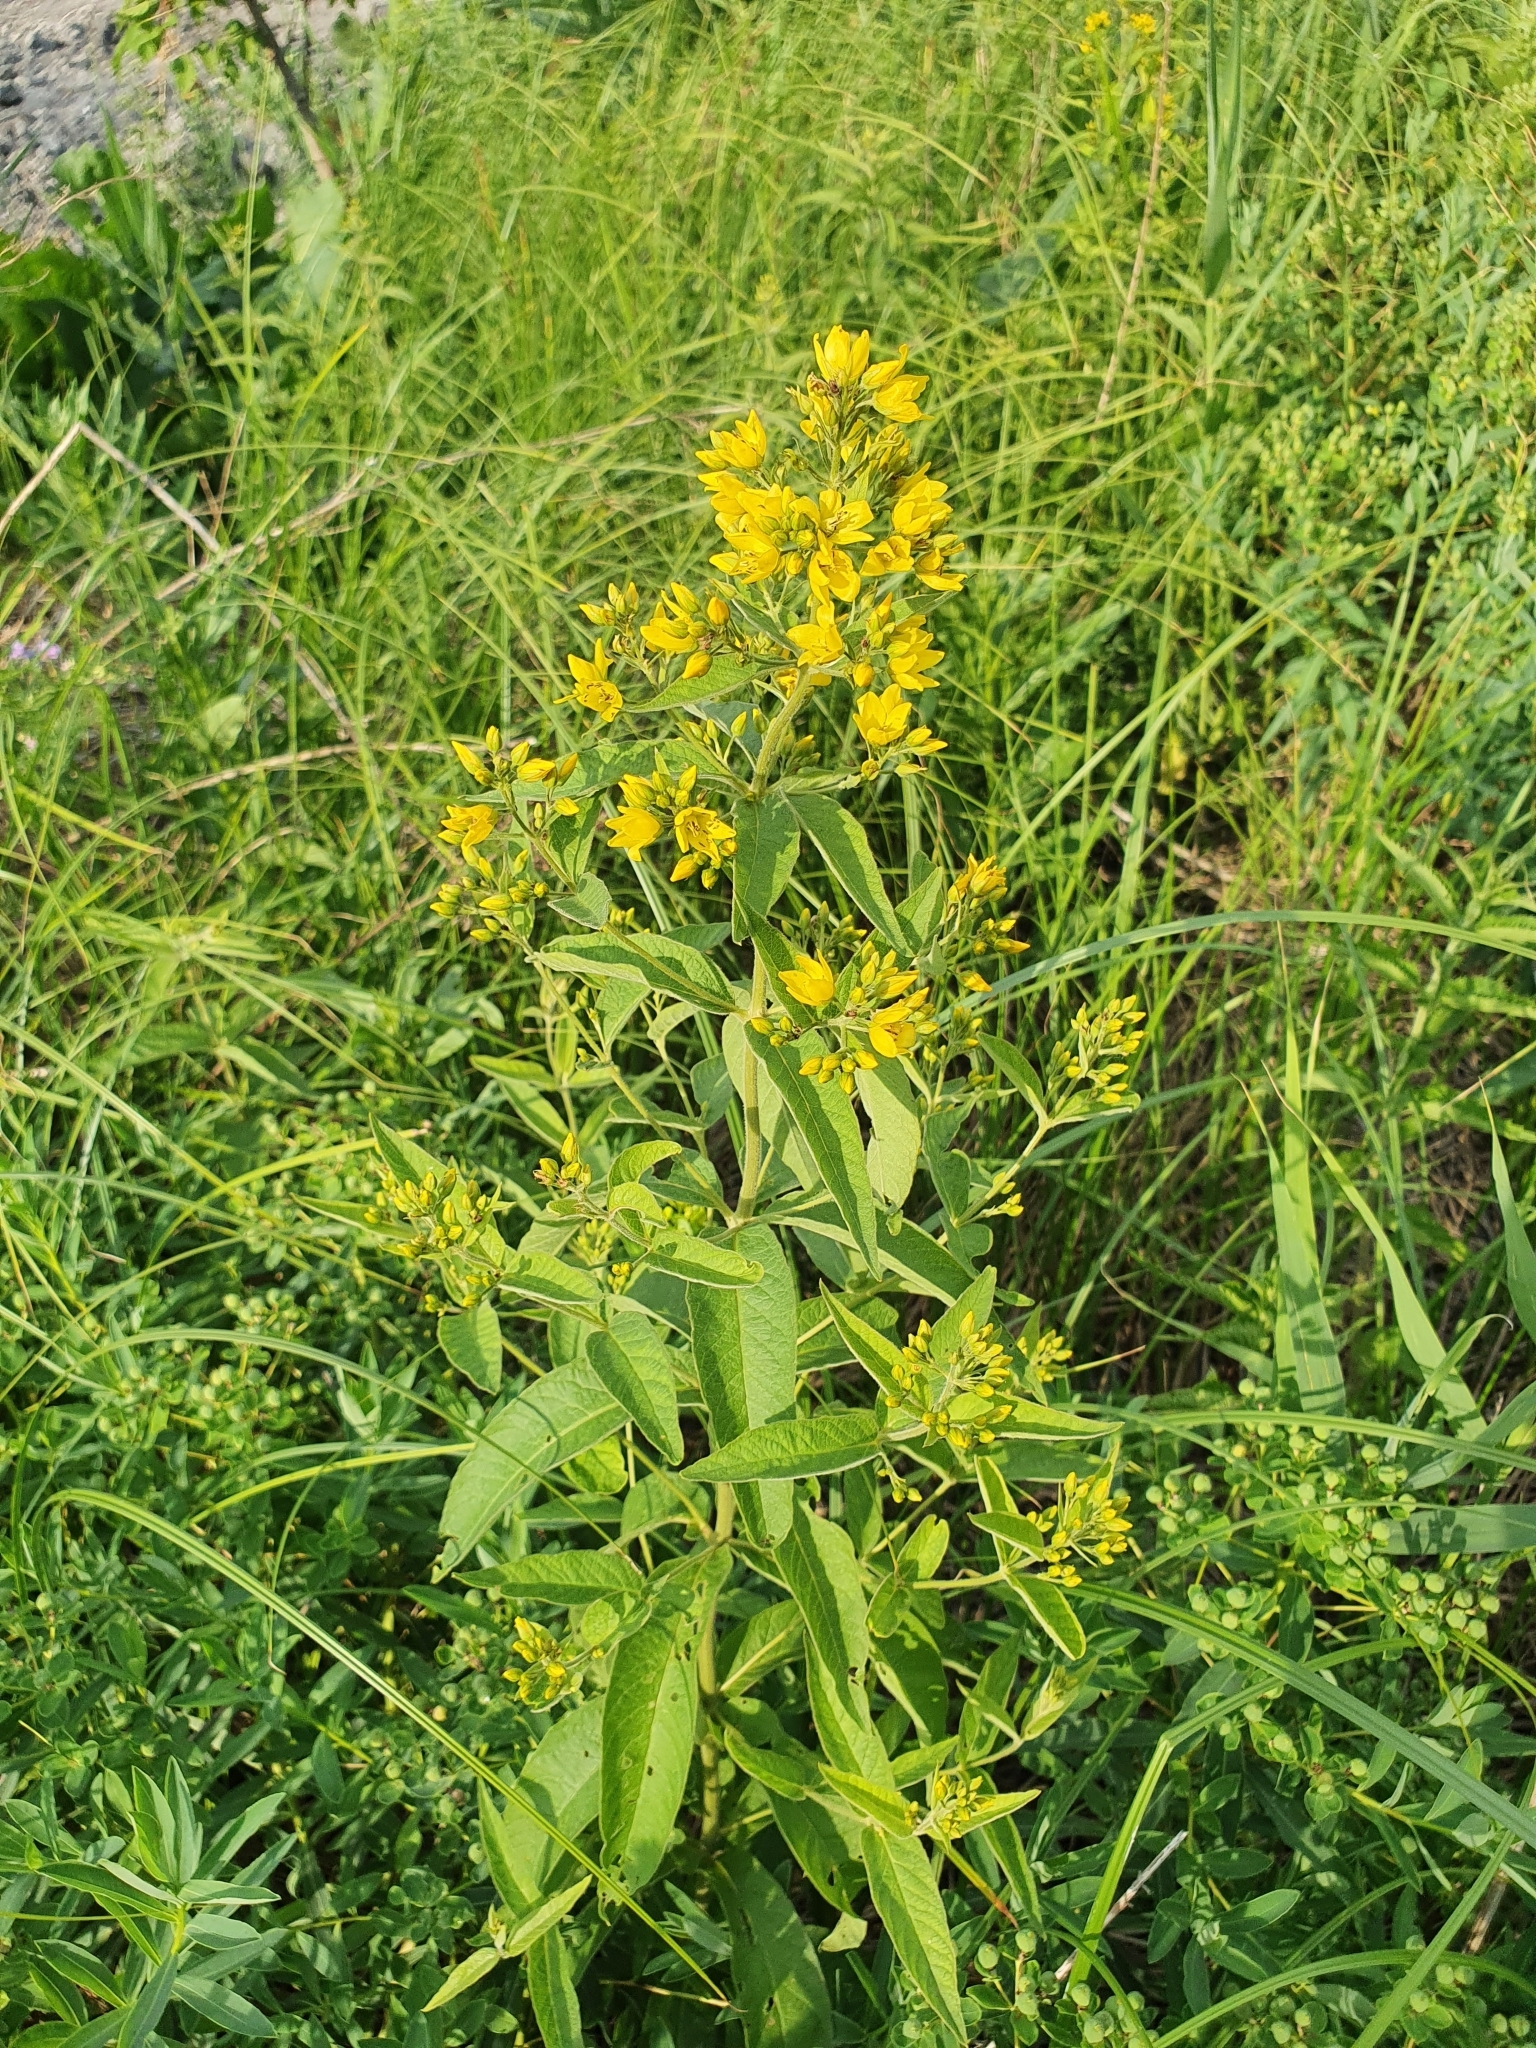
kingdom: Plantae
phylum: Tracheophyta
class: Magnoliopsida
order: Ericales
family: Primulaceae
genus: Lysimachia
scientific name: Lysimachia vulgaris
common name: Yellow loosestrife
